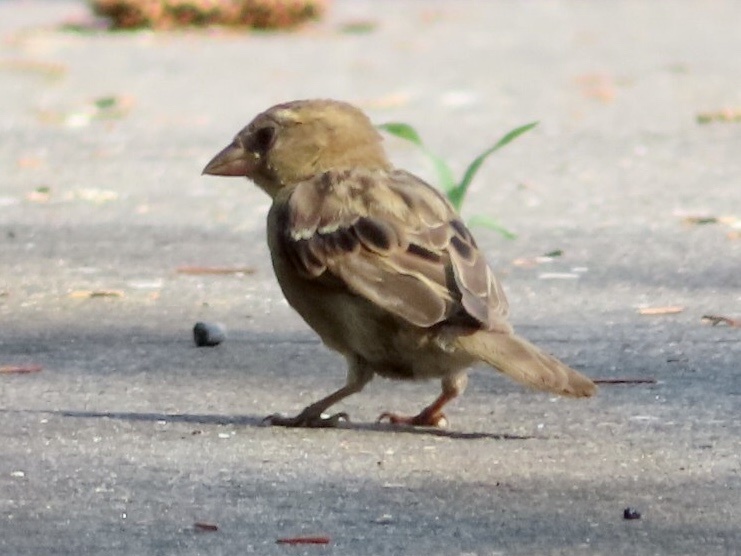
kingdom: Animalia
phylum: Chordata
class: Aves
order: Passeriformes
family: Passeridae
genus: Passer
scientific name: Passer domesticus
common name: House sparrow
